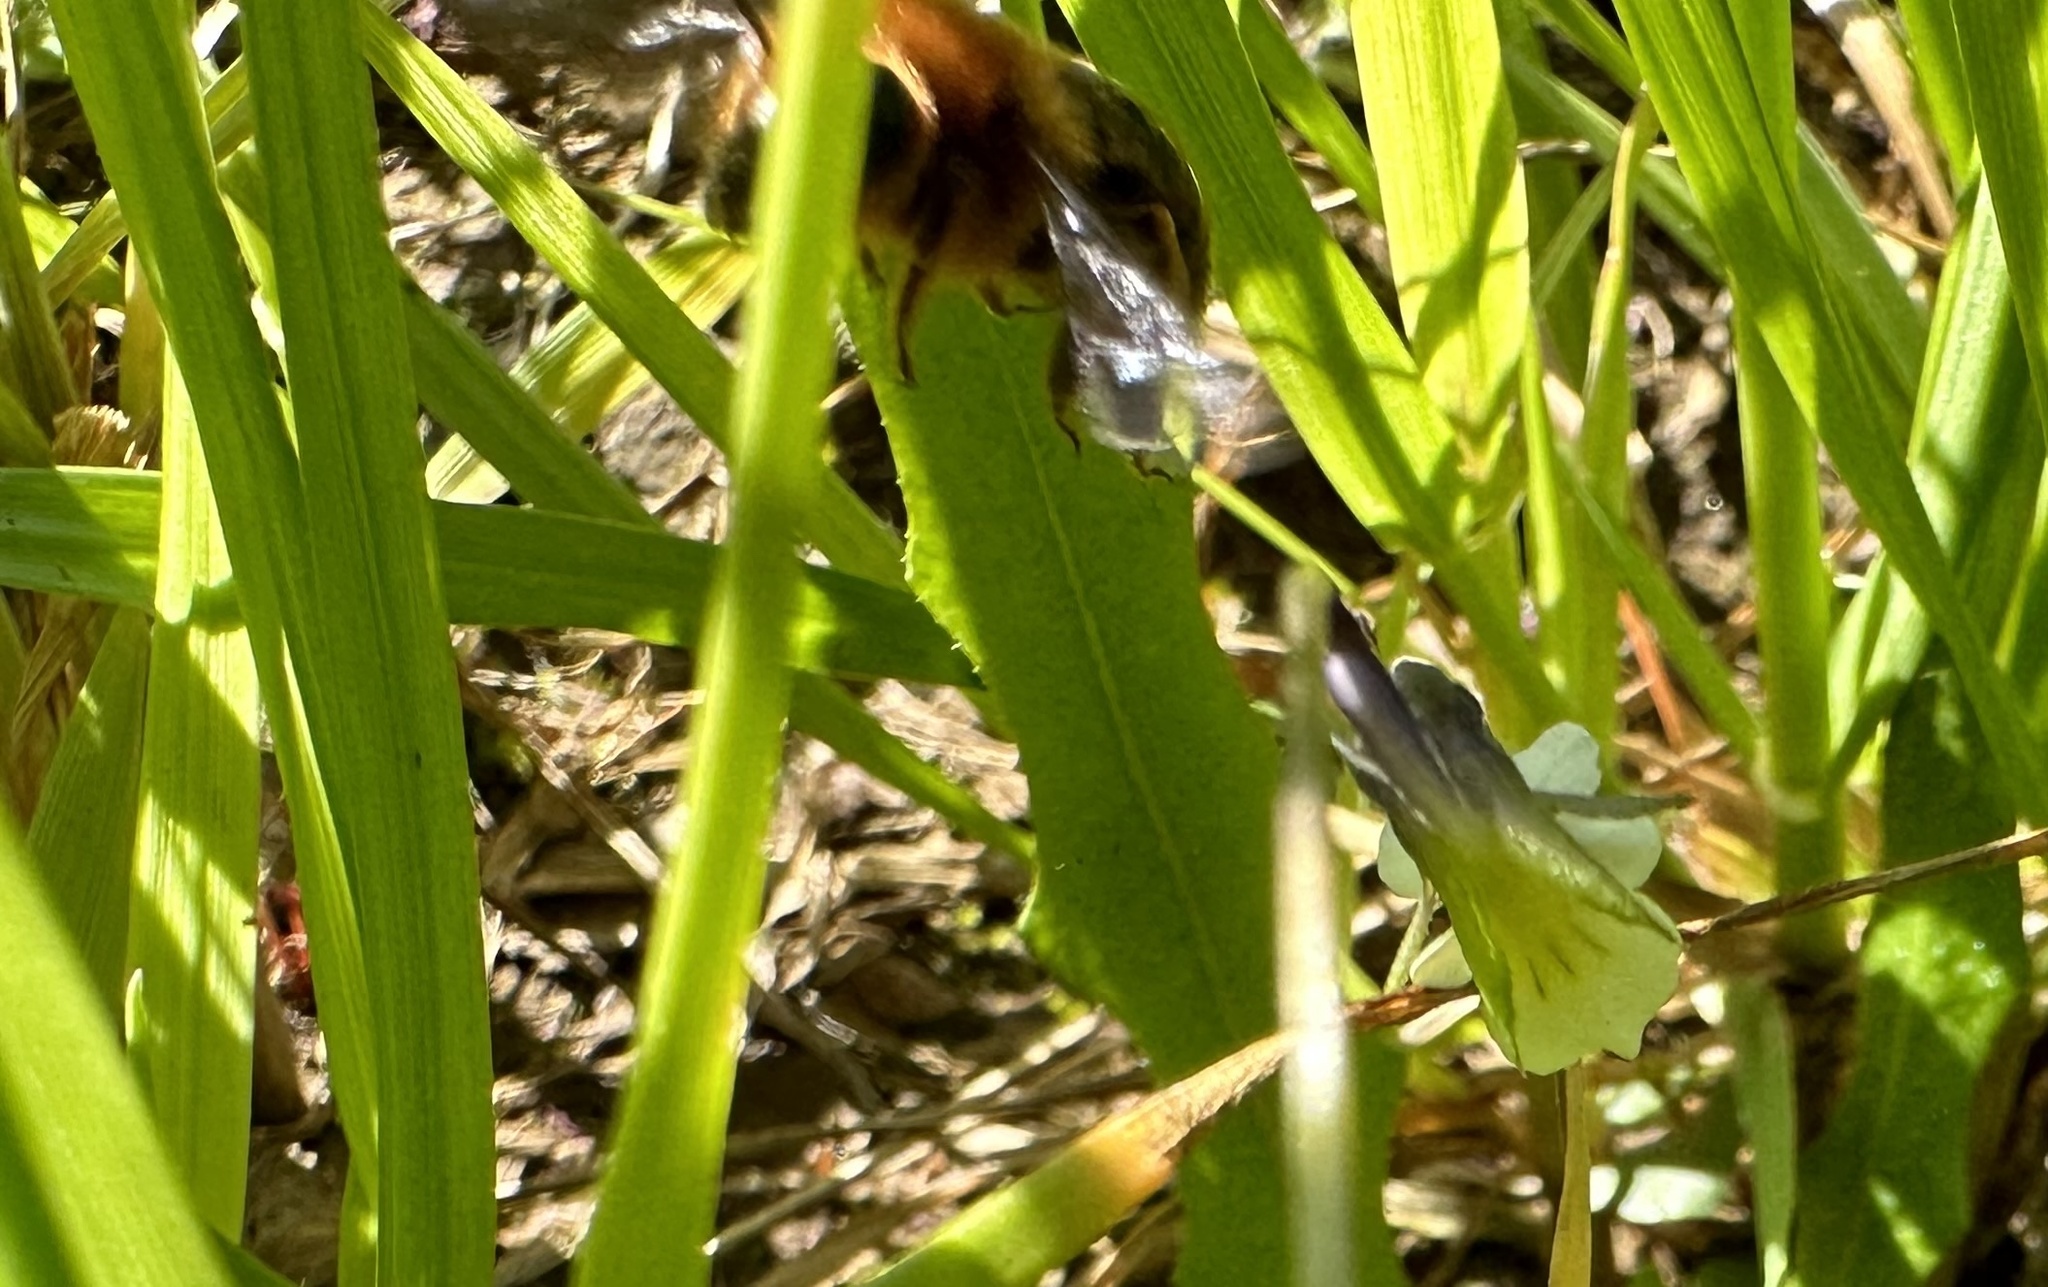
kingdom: Animalia
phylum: Arthropoda
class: Insecta
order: Hymenoptera
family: Colletidae
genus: Cadeguala
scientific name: Cadeguala occidentalis
